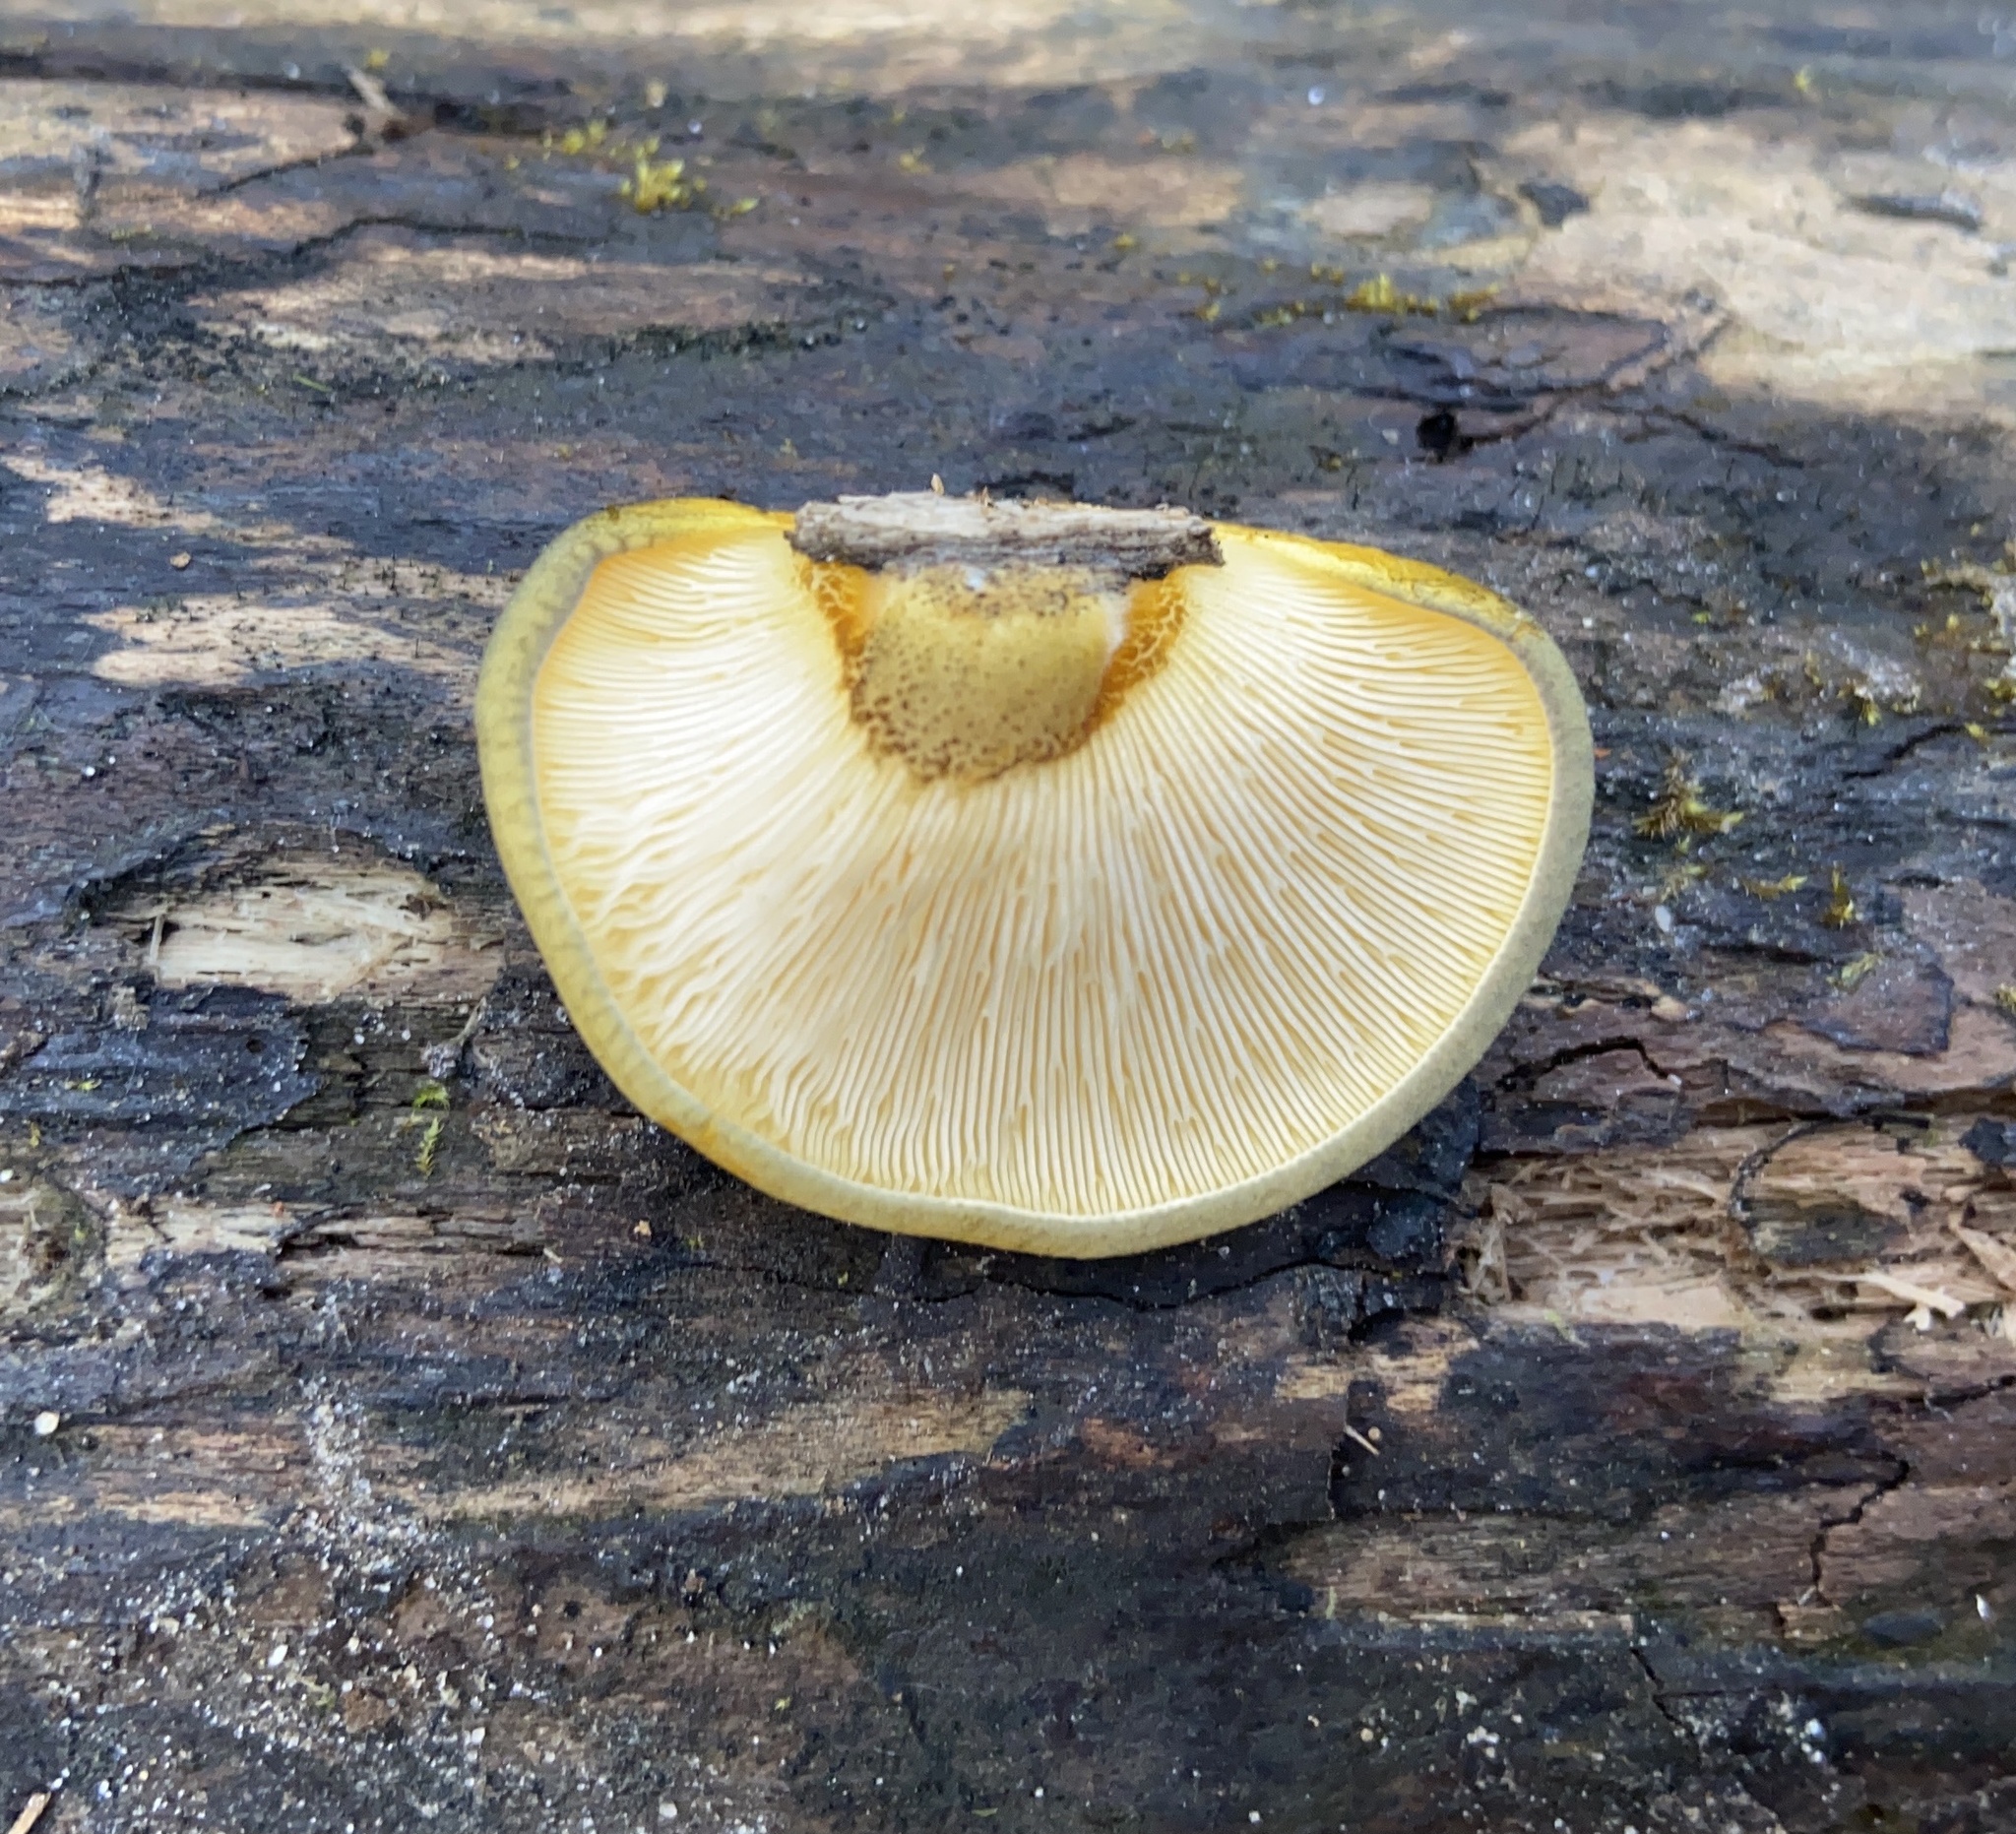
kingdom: Fungi
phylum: Basidiomycota
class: Agaricomycetes
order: Agaricales
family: Sarcomyxaceae
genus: Sarcomyxa
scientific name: Sarcomyxa serotina
